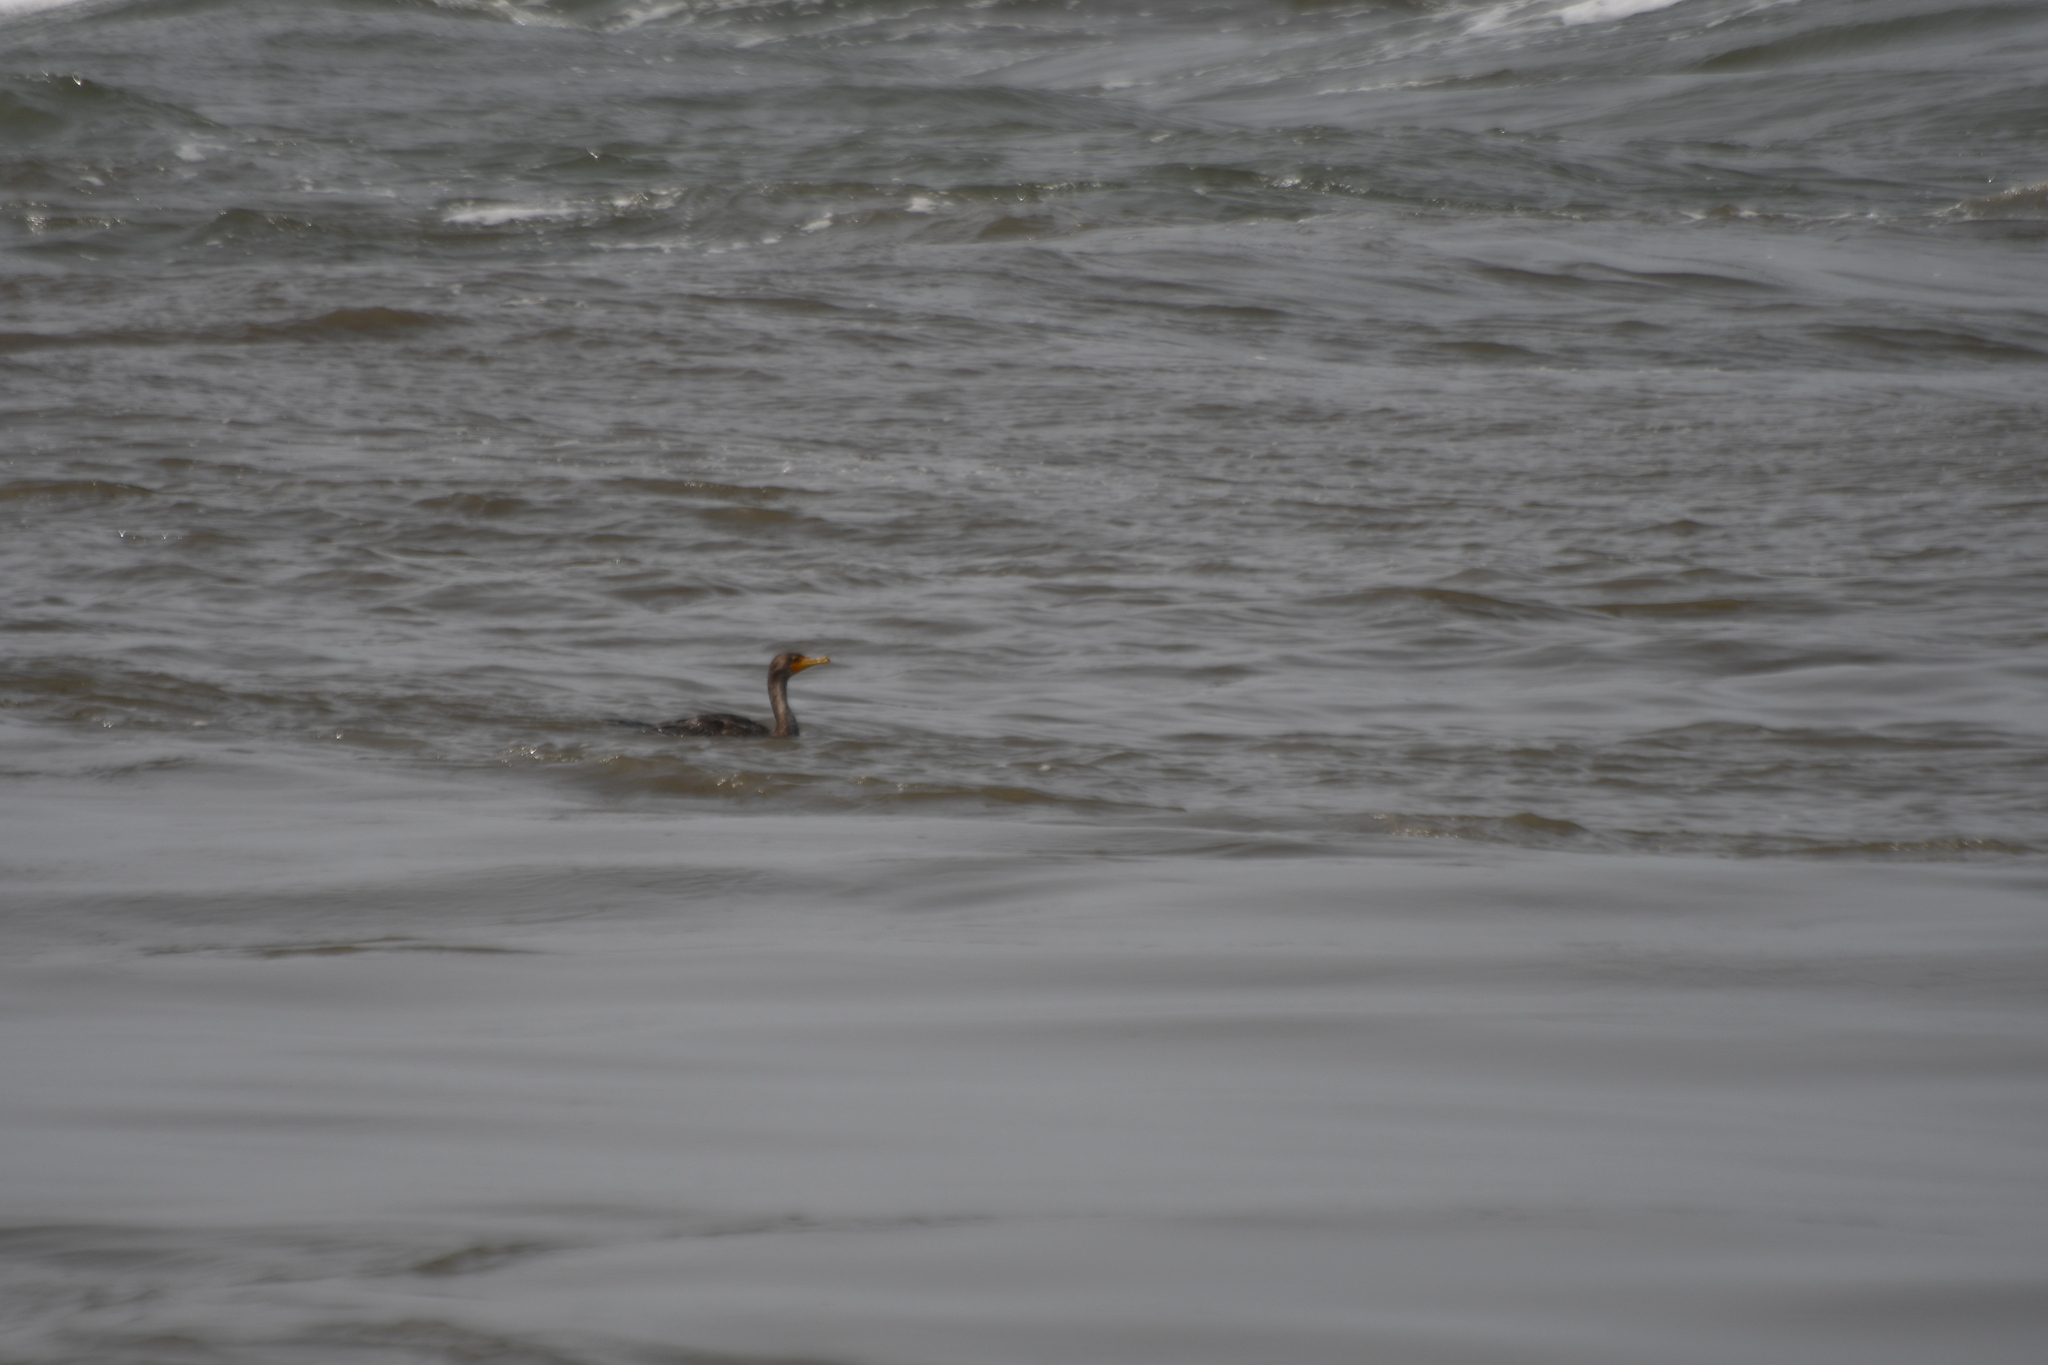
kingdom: Animalia
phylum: Chordata
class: Aves
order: Suliformes
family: Phalacrocoracidae
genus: Phalacrocorax
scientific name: Phalacrocorax auritus
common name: Double-crested cormorant
